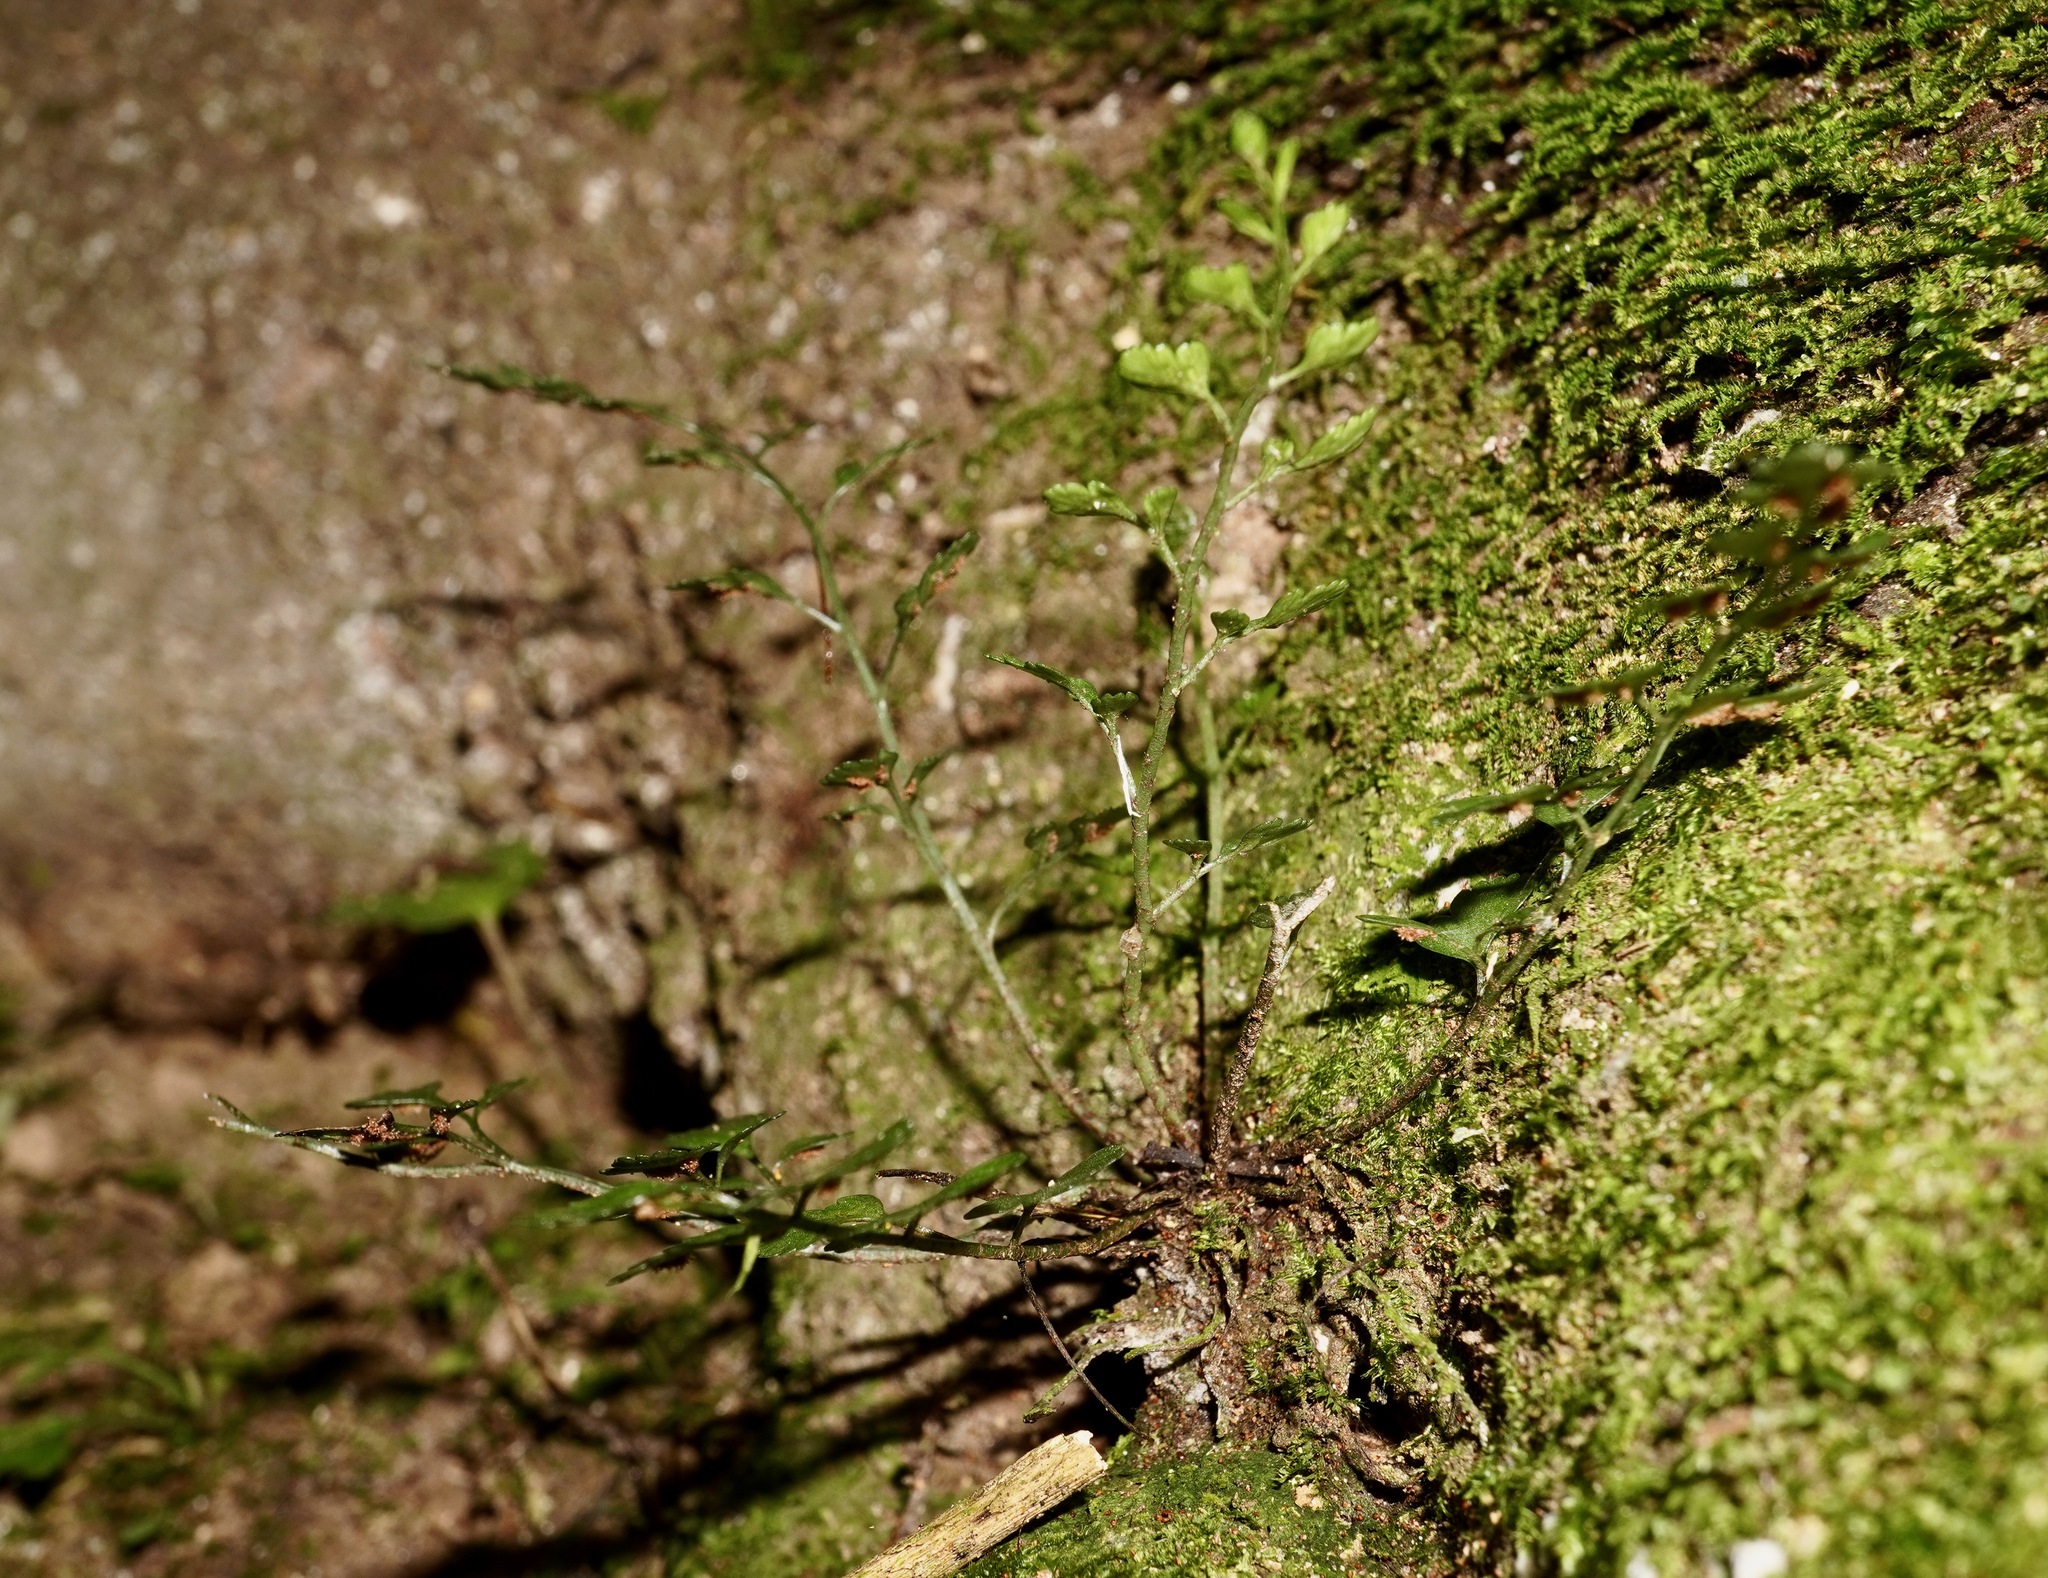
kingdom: Plantae
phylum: Tracheophyta
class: Polypodiopsida
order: Polypodiales
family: Aspleniaceae
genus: Asplenium
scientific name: Asplenium hookerianum
